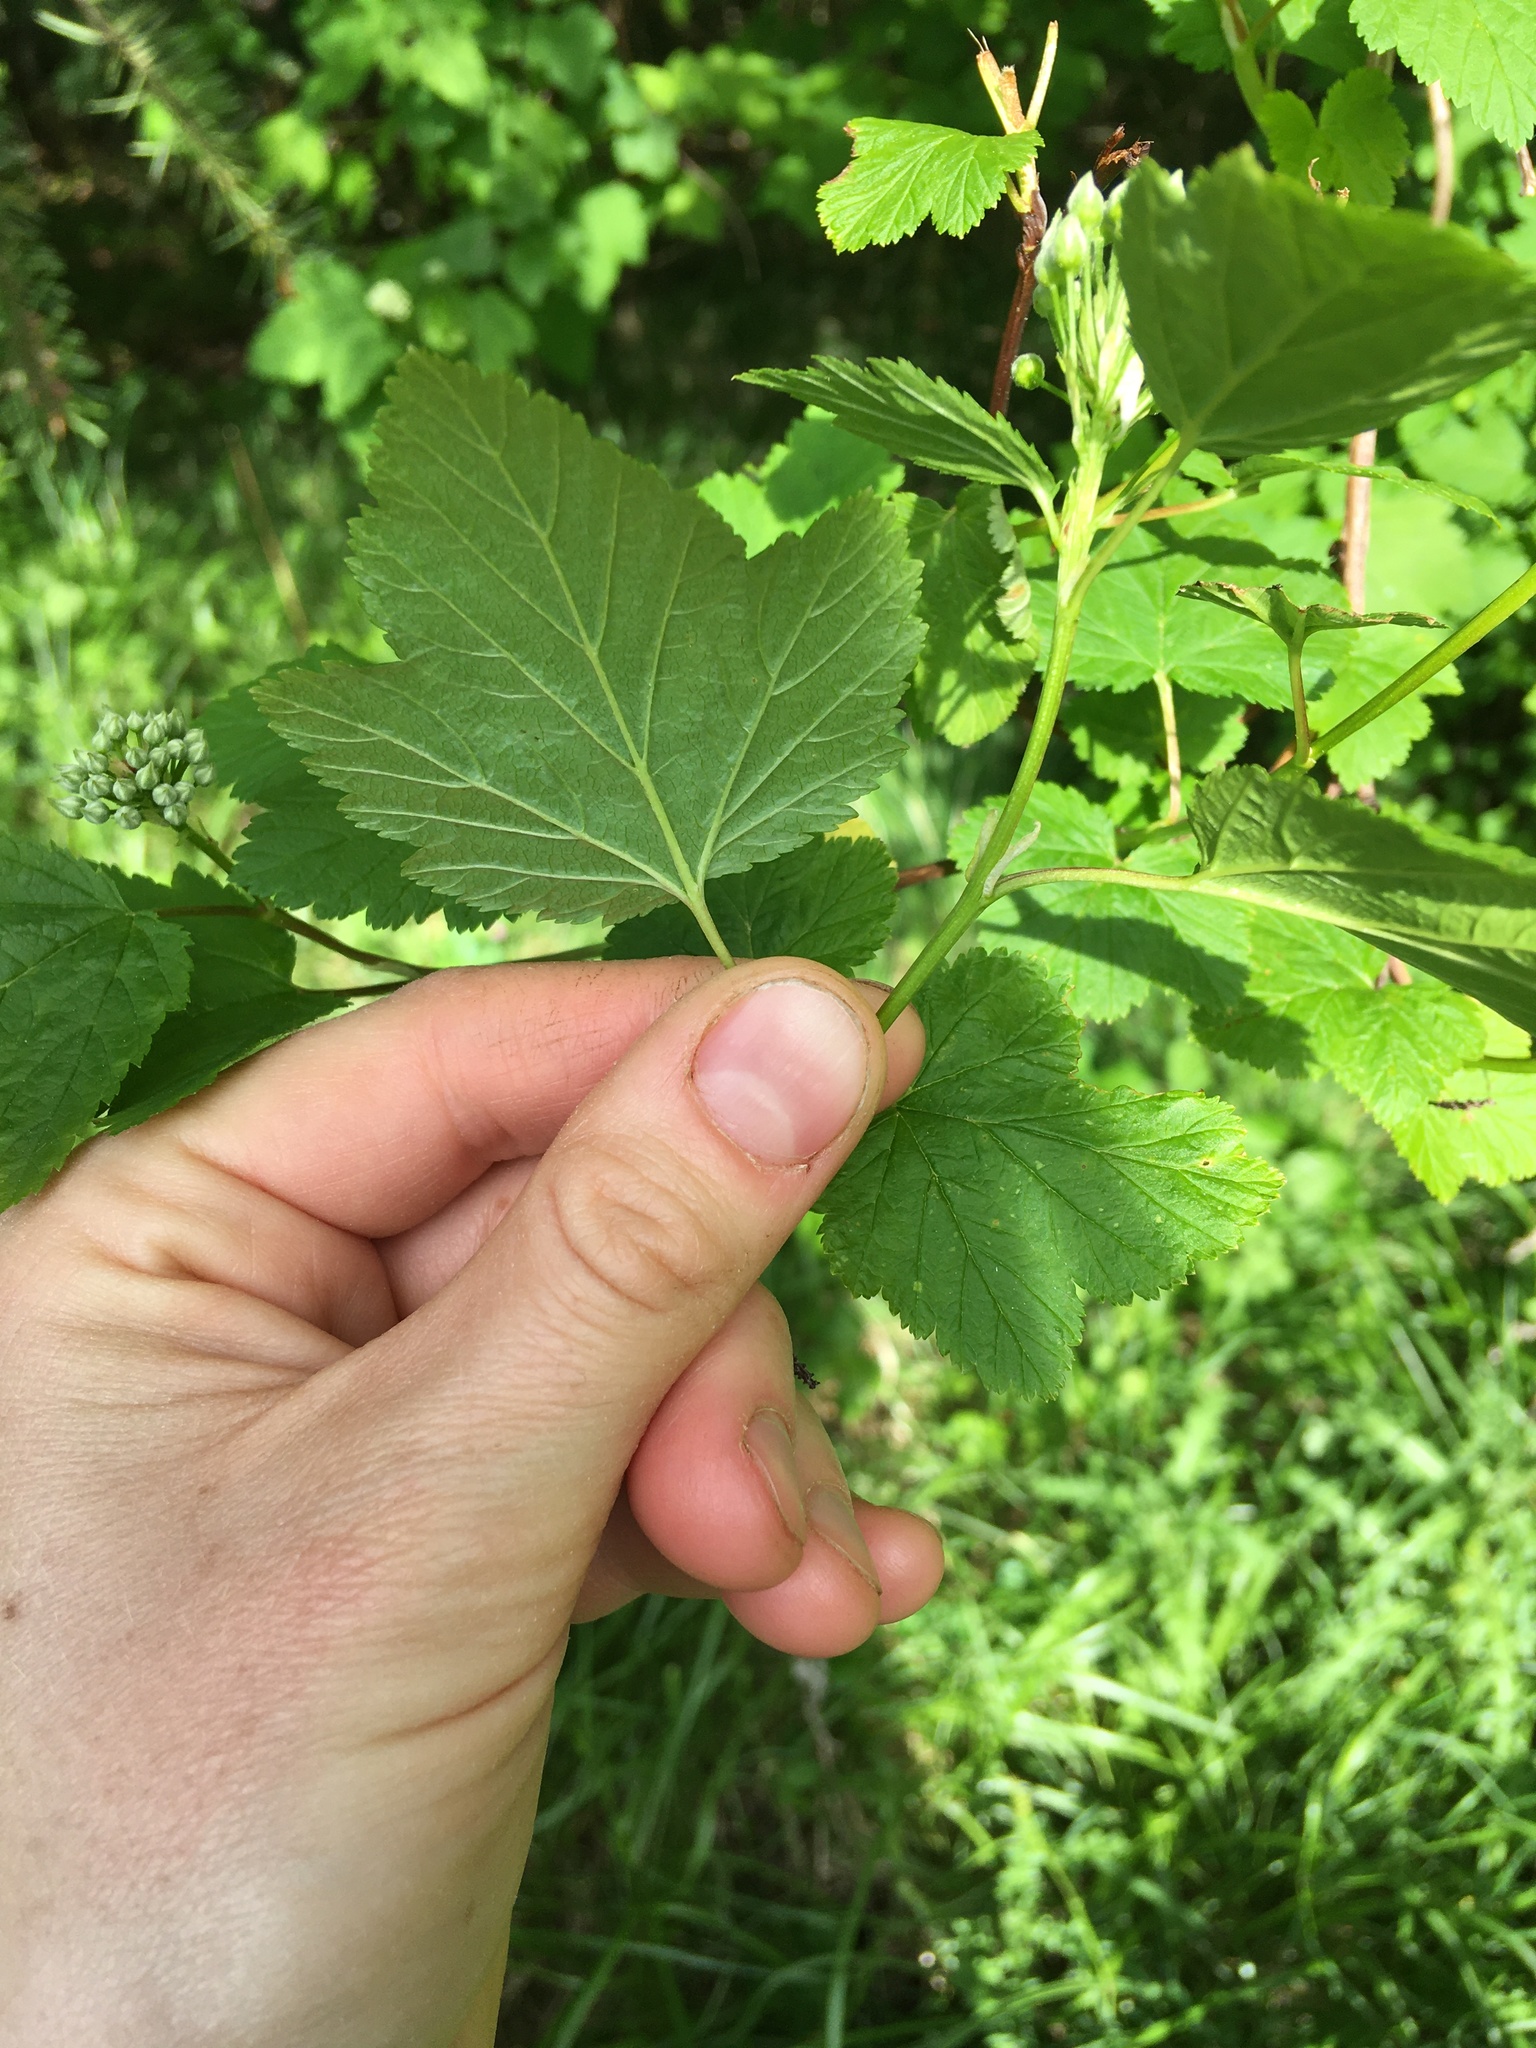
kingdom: Plantae
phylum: Tracheophyta
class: Magnoliopsida
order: Rosales
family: Rosaceae
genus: Physocarpus
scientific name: Physocarpus capitatus
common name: Pacific ninebark
